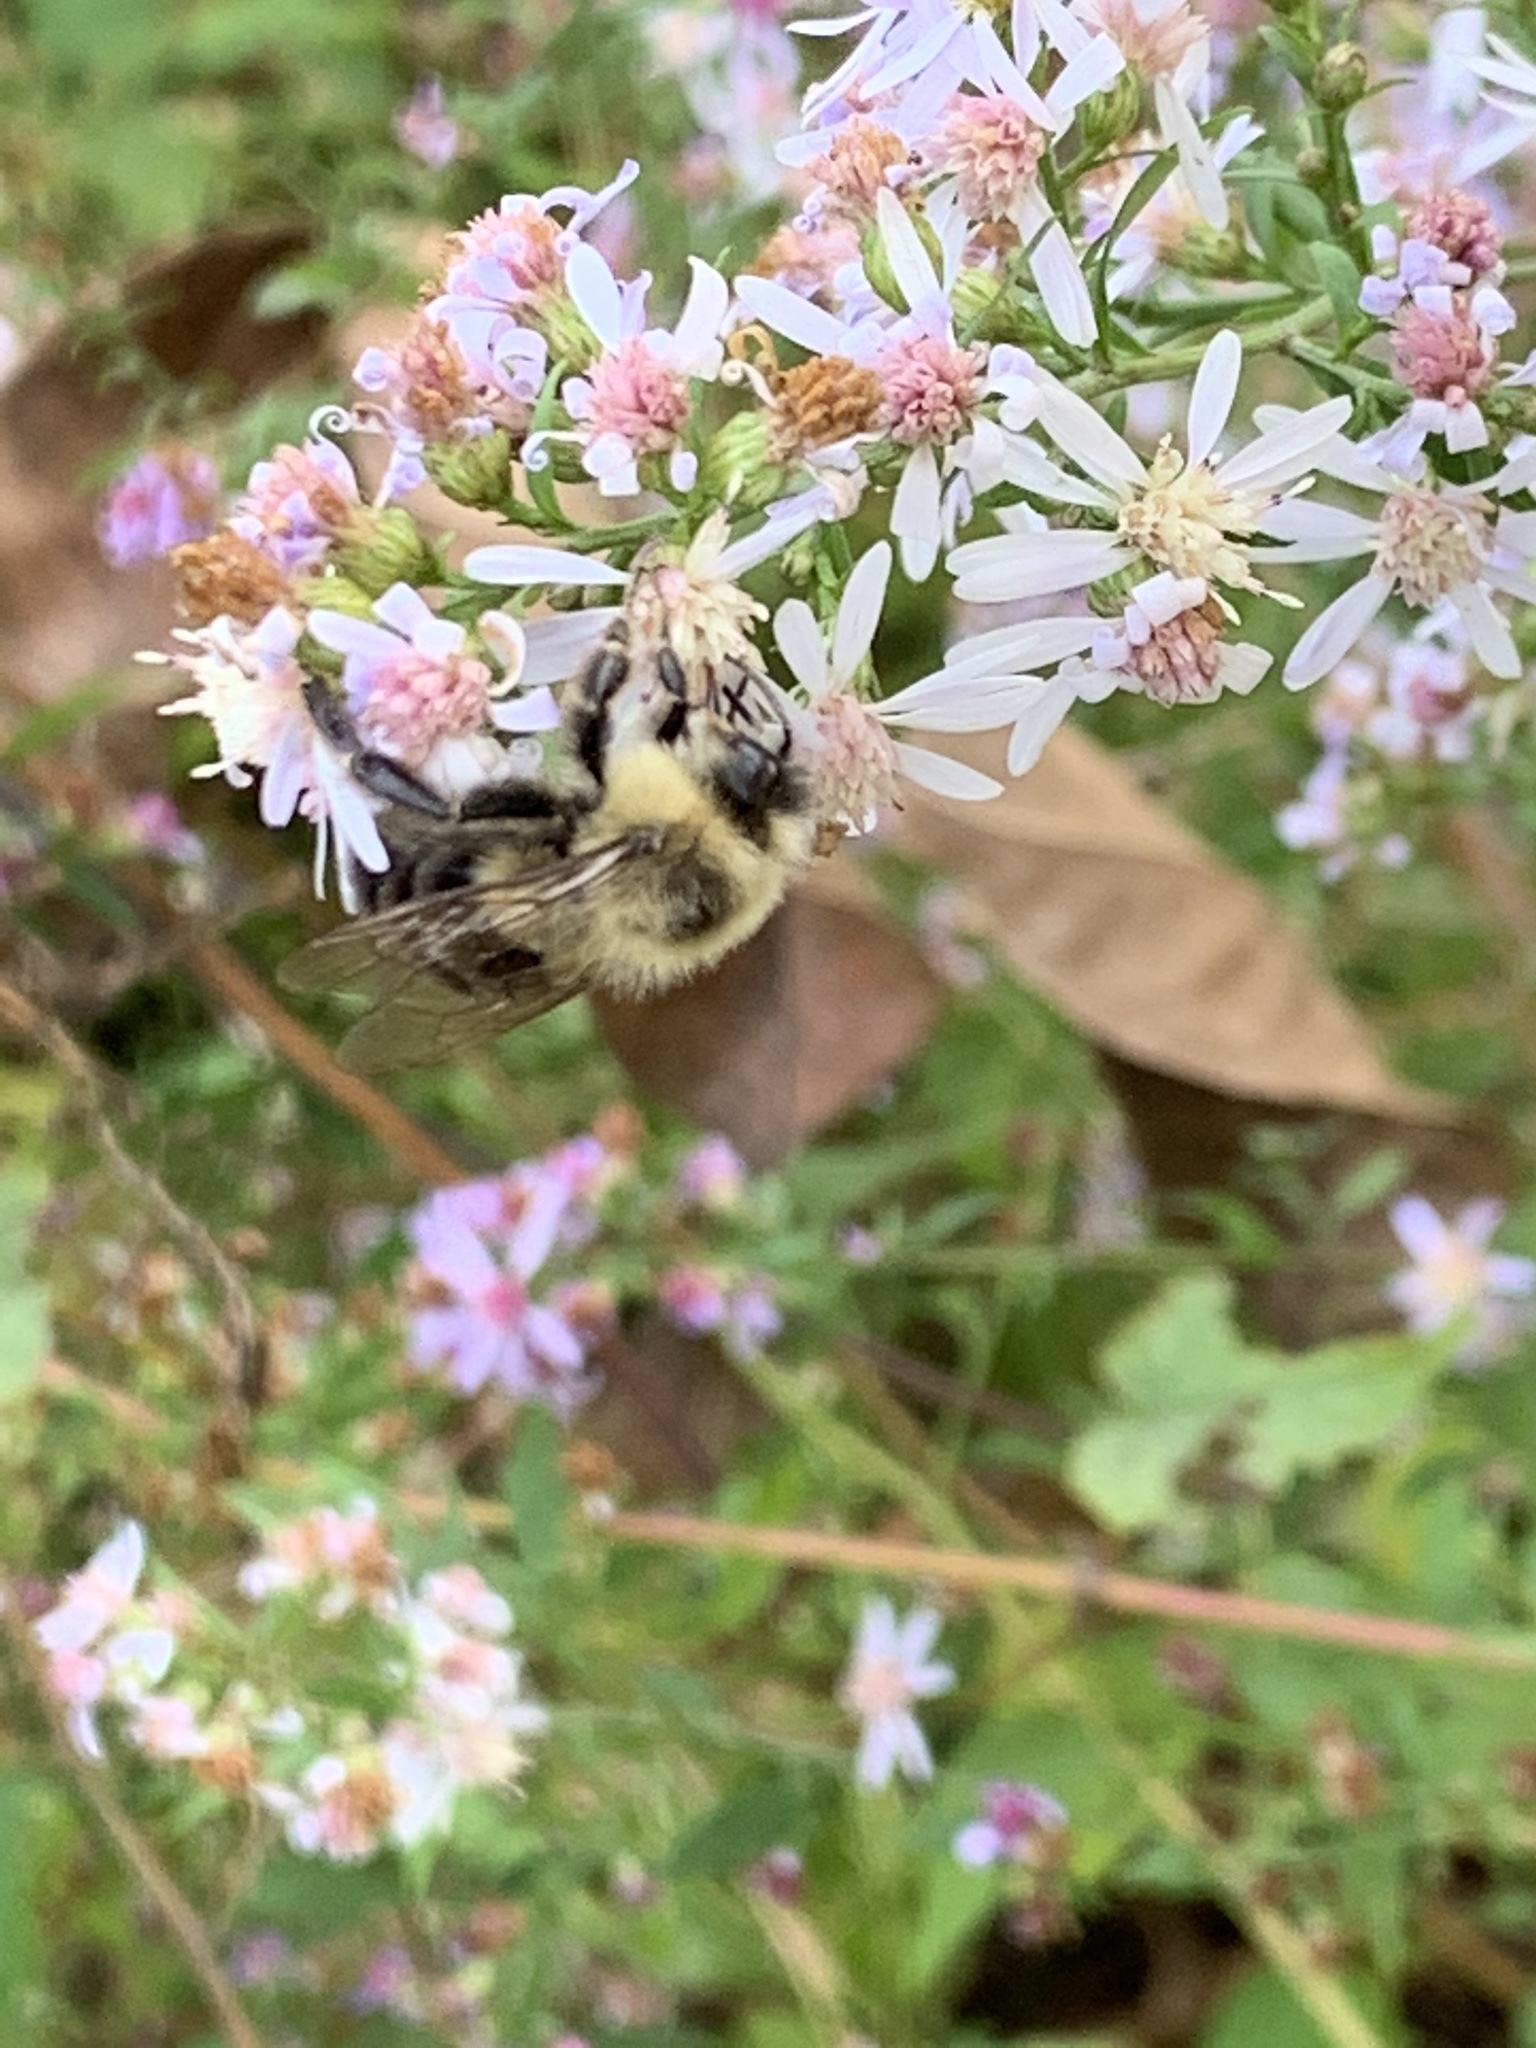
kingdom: Animalia
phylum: Arthropoda
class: Insecta
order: Hymenoptera
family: Apidae
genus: Bombus
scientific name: Bombus impatiens
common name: Common eastern bumble bee
